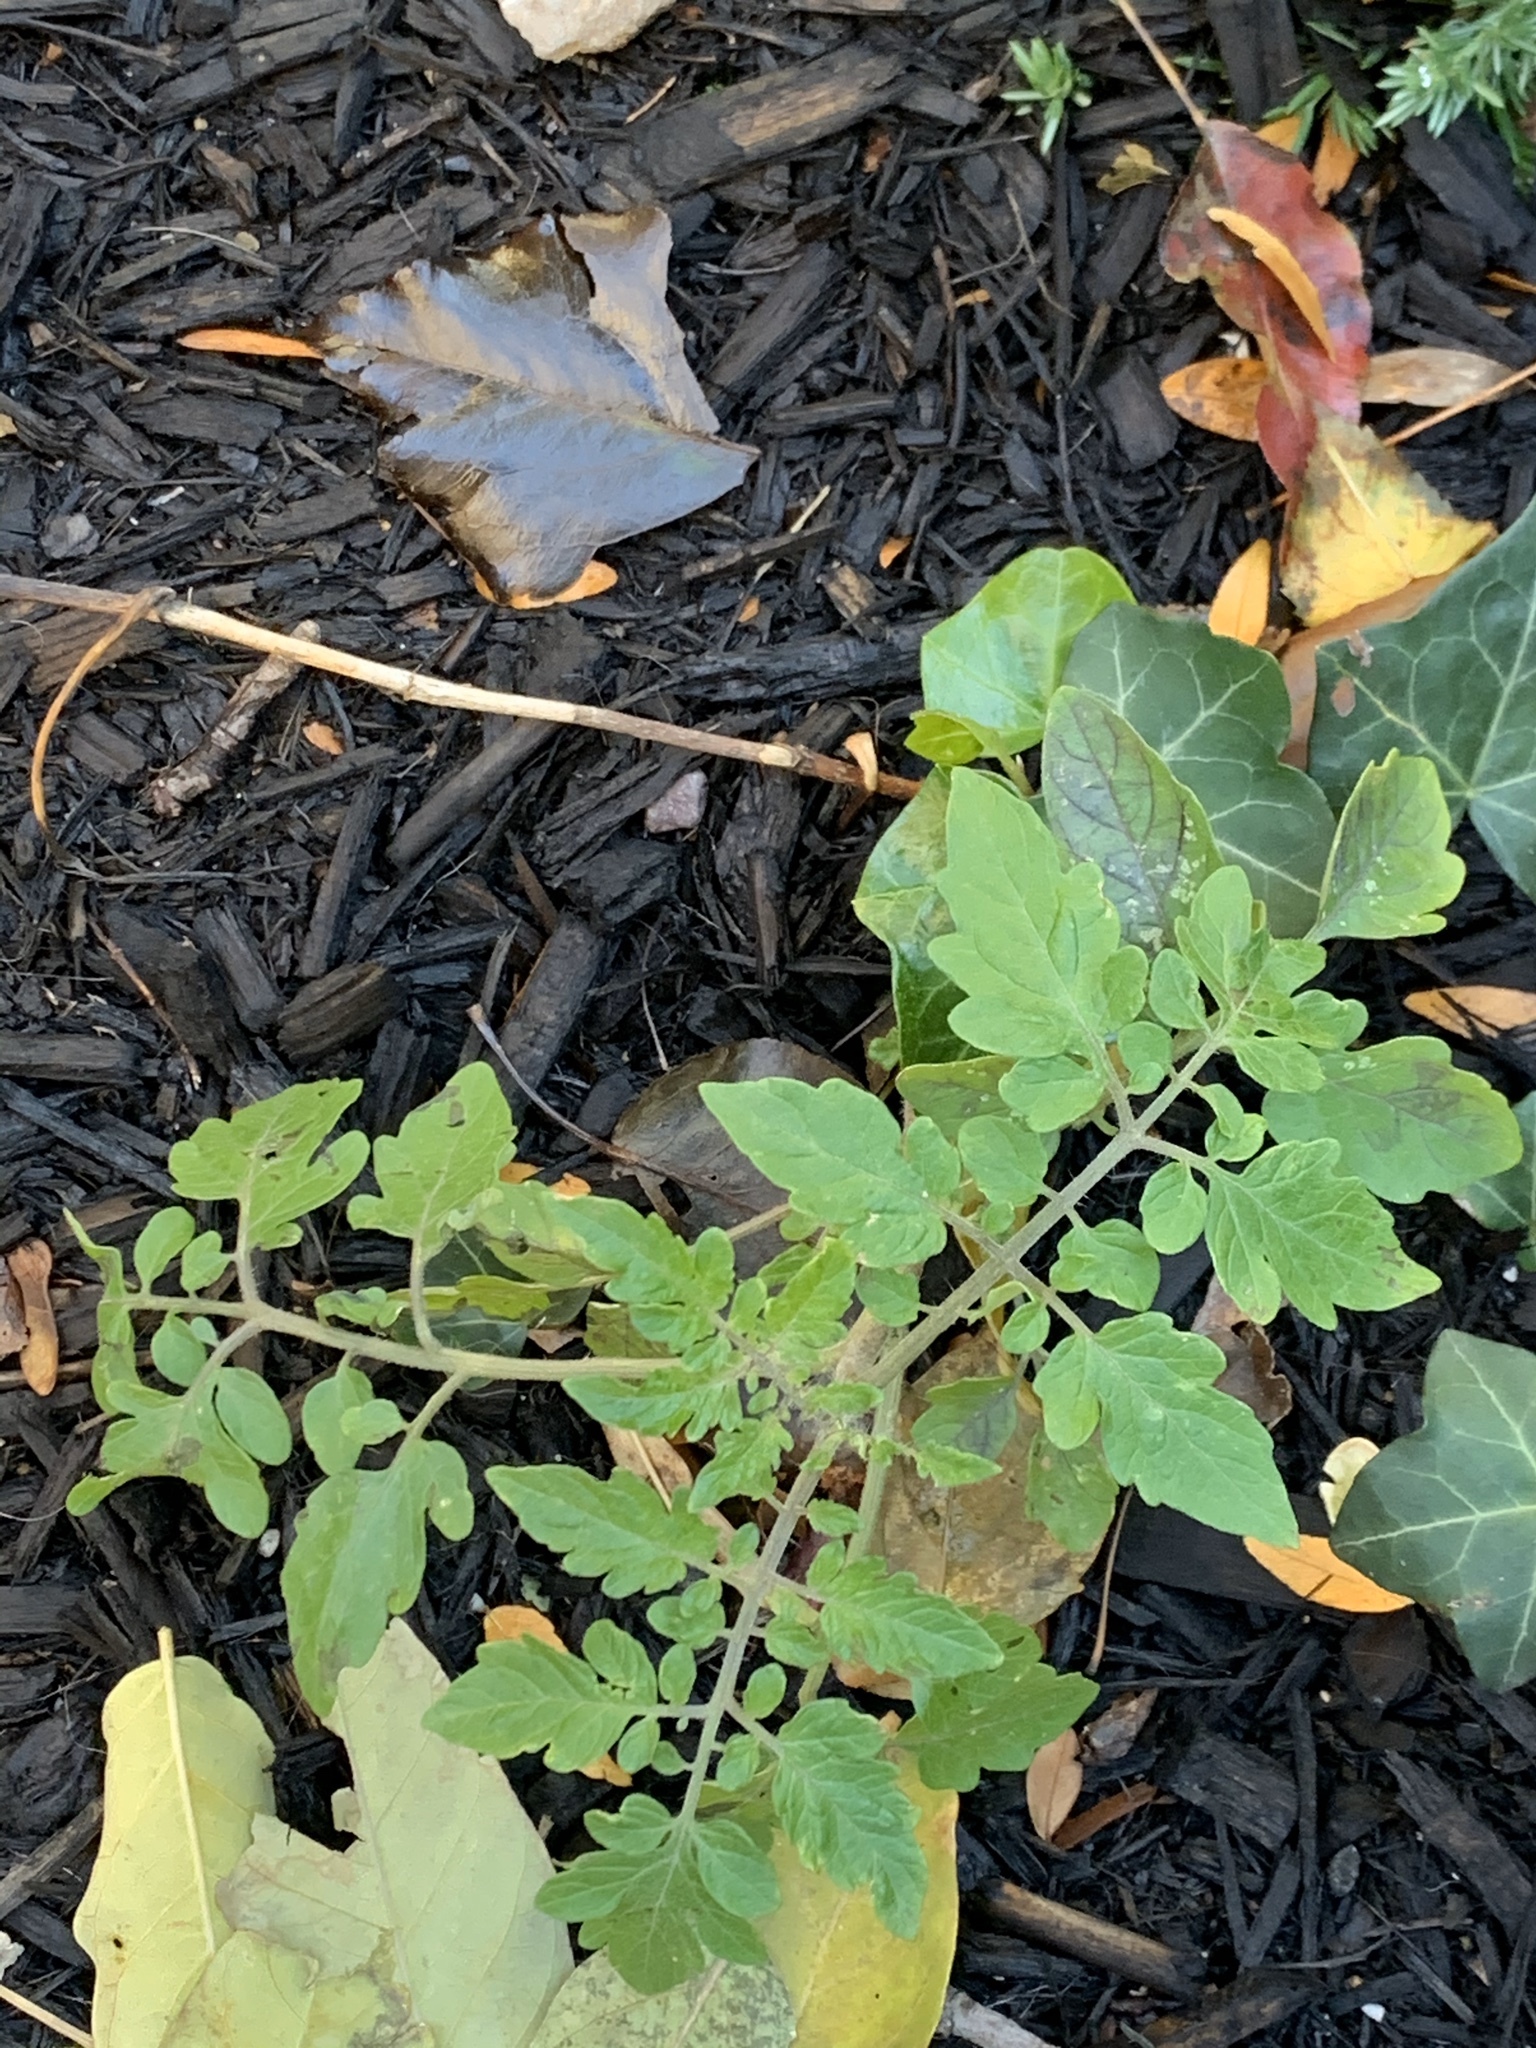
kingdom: Plantae
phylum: Tracheophyta
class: Magnoliopsida
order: Solanales
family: Solanaceae
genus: Solanum
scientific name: Solanum lycopersicum
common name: Garden tomato
